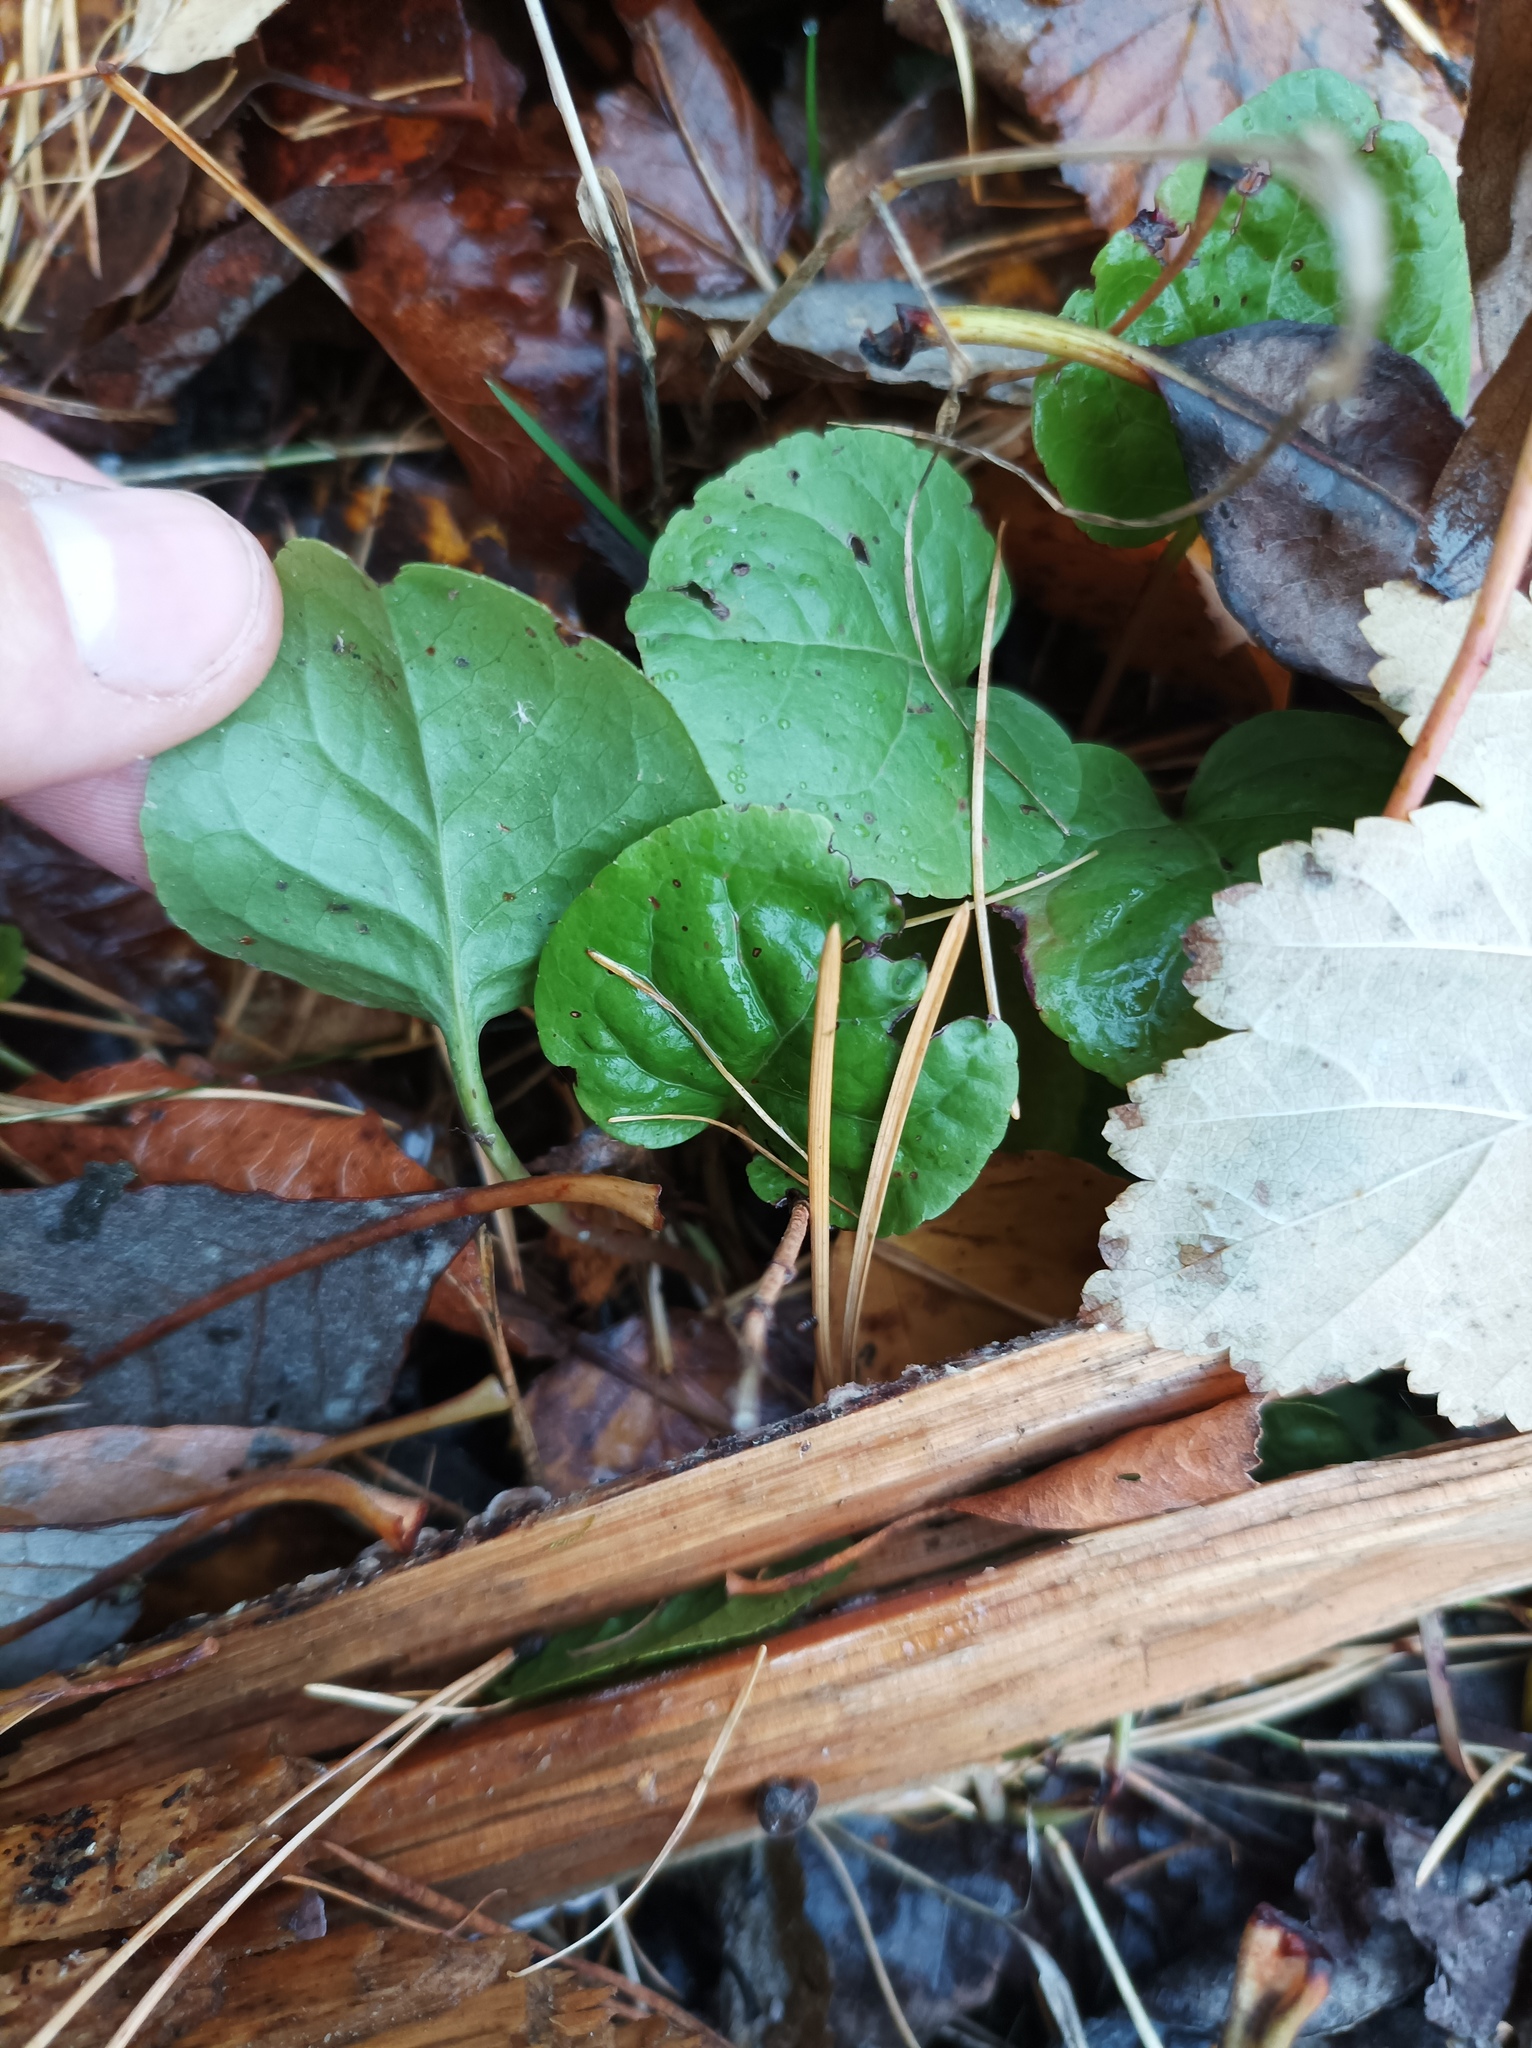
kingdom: Plantae
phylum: Tracheophyta
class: Magnoliopsida
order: Ericales
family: Ericaceae
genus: Pyrola
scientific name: Pyrola
